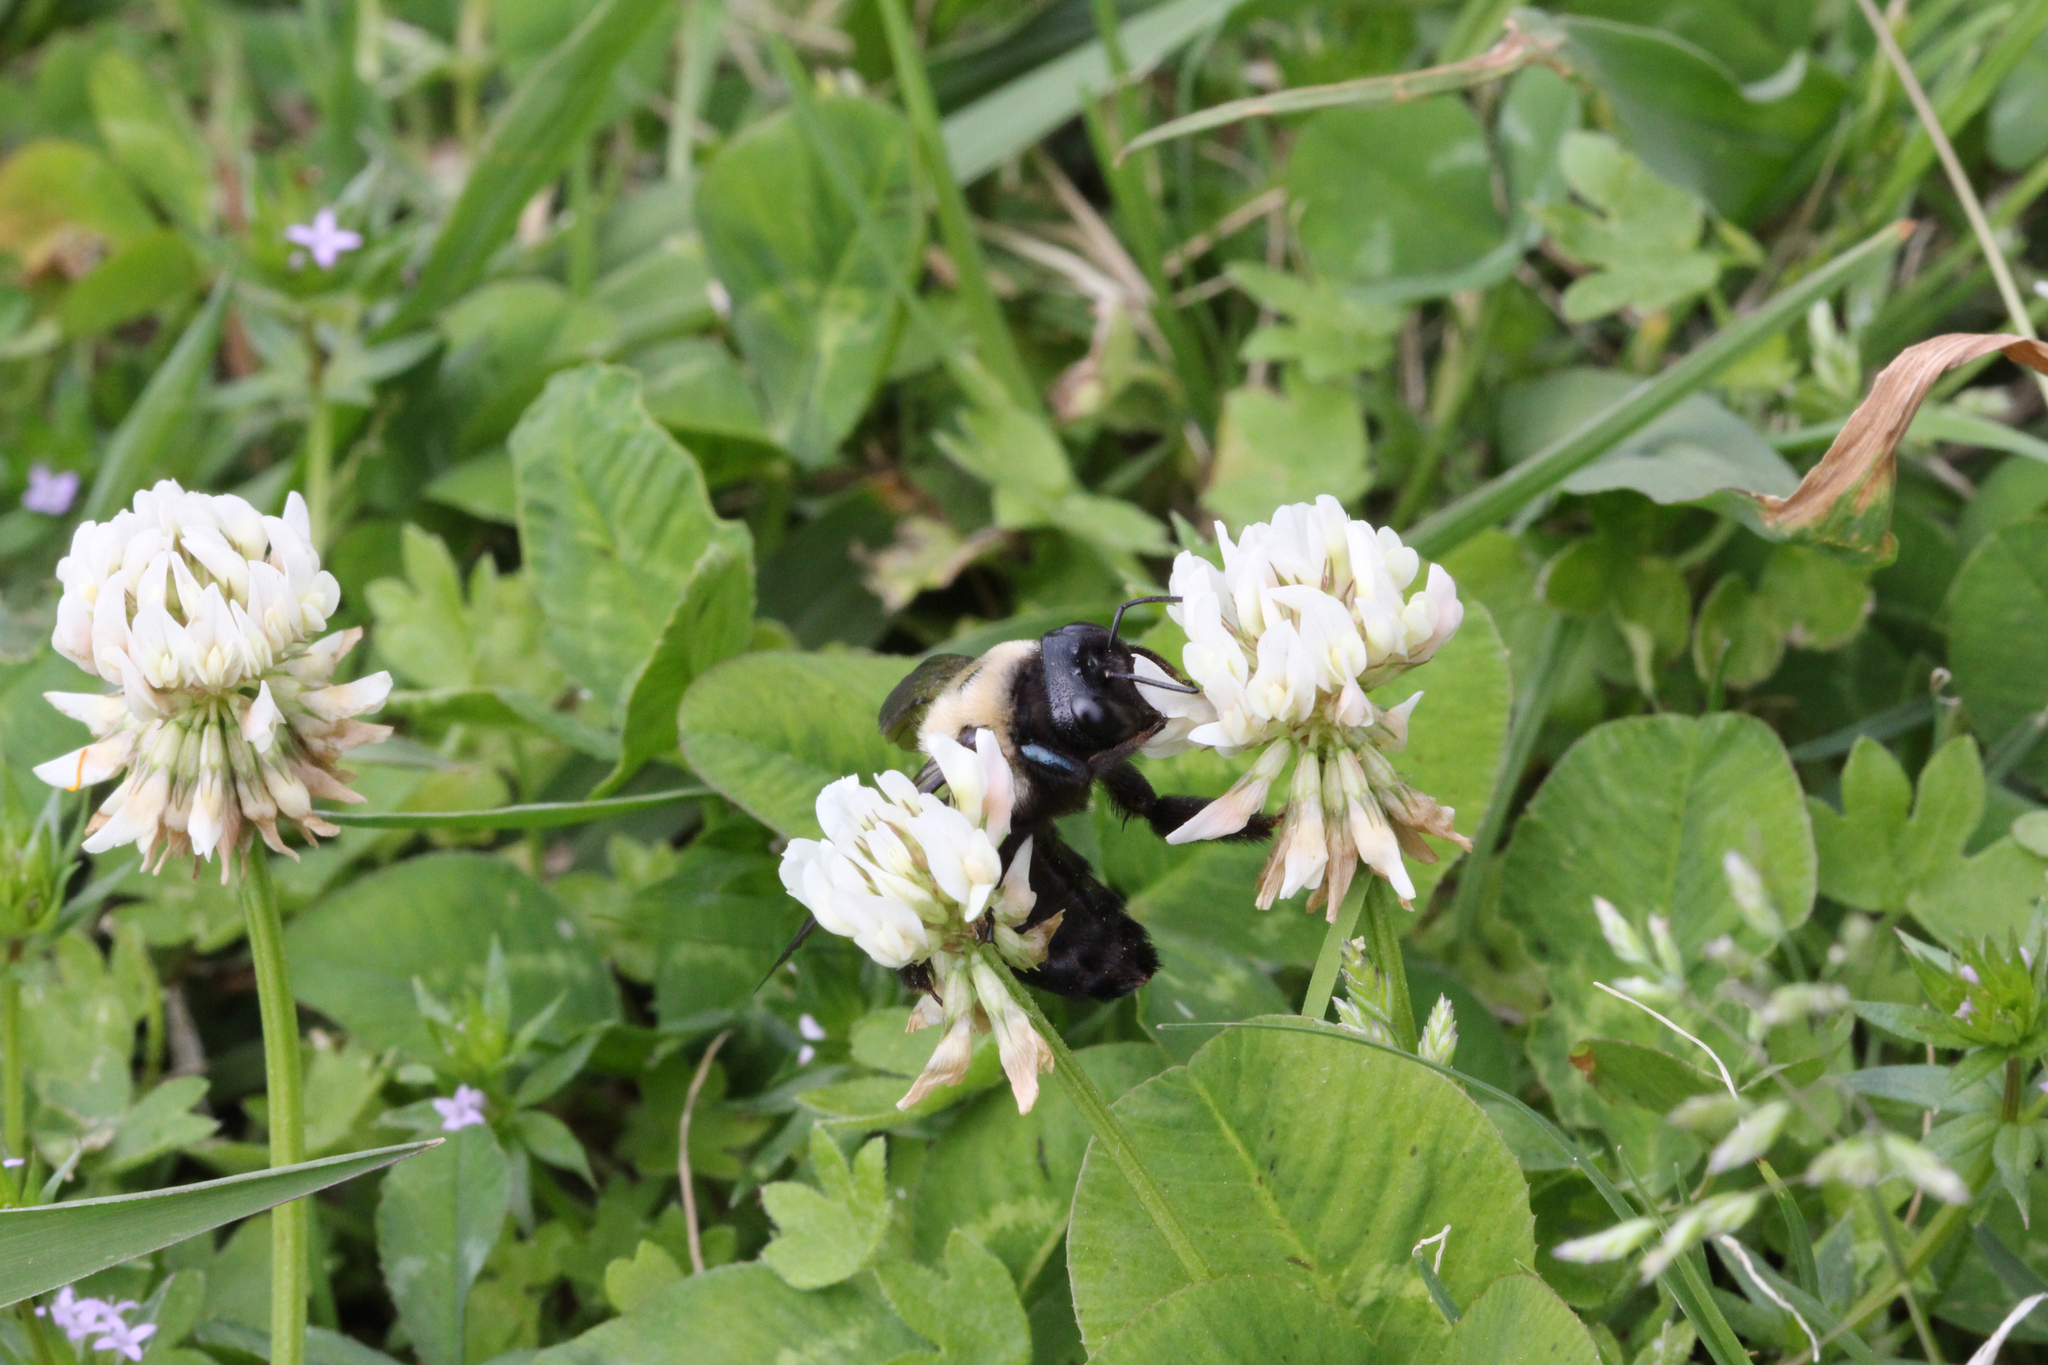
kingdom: Animalia
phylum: Arthropoda
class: Insecta
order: Hymenoptera
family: Apidae
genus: Xylocopa
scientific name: Xylocopa virginica
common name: Carpenter bee
